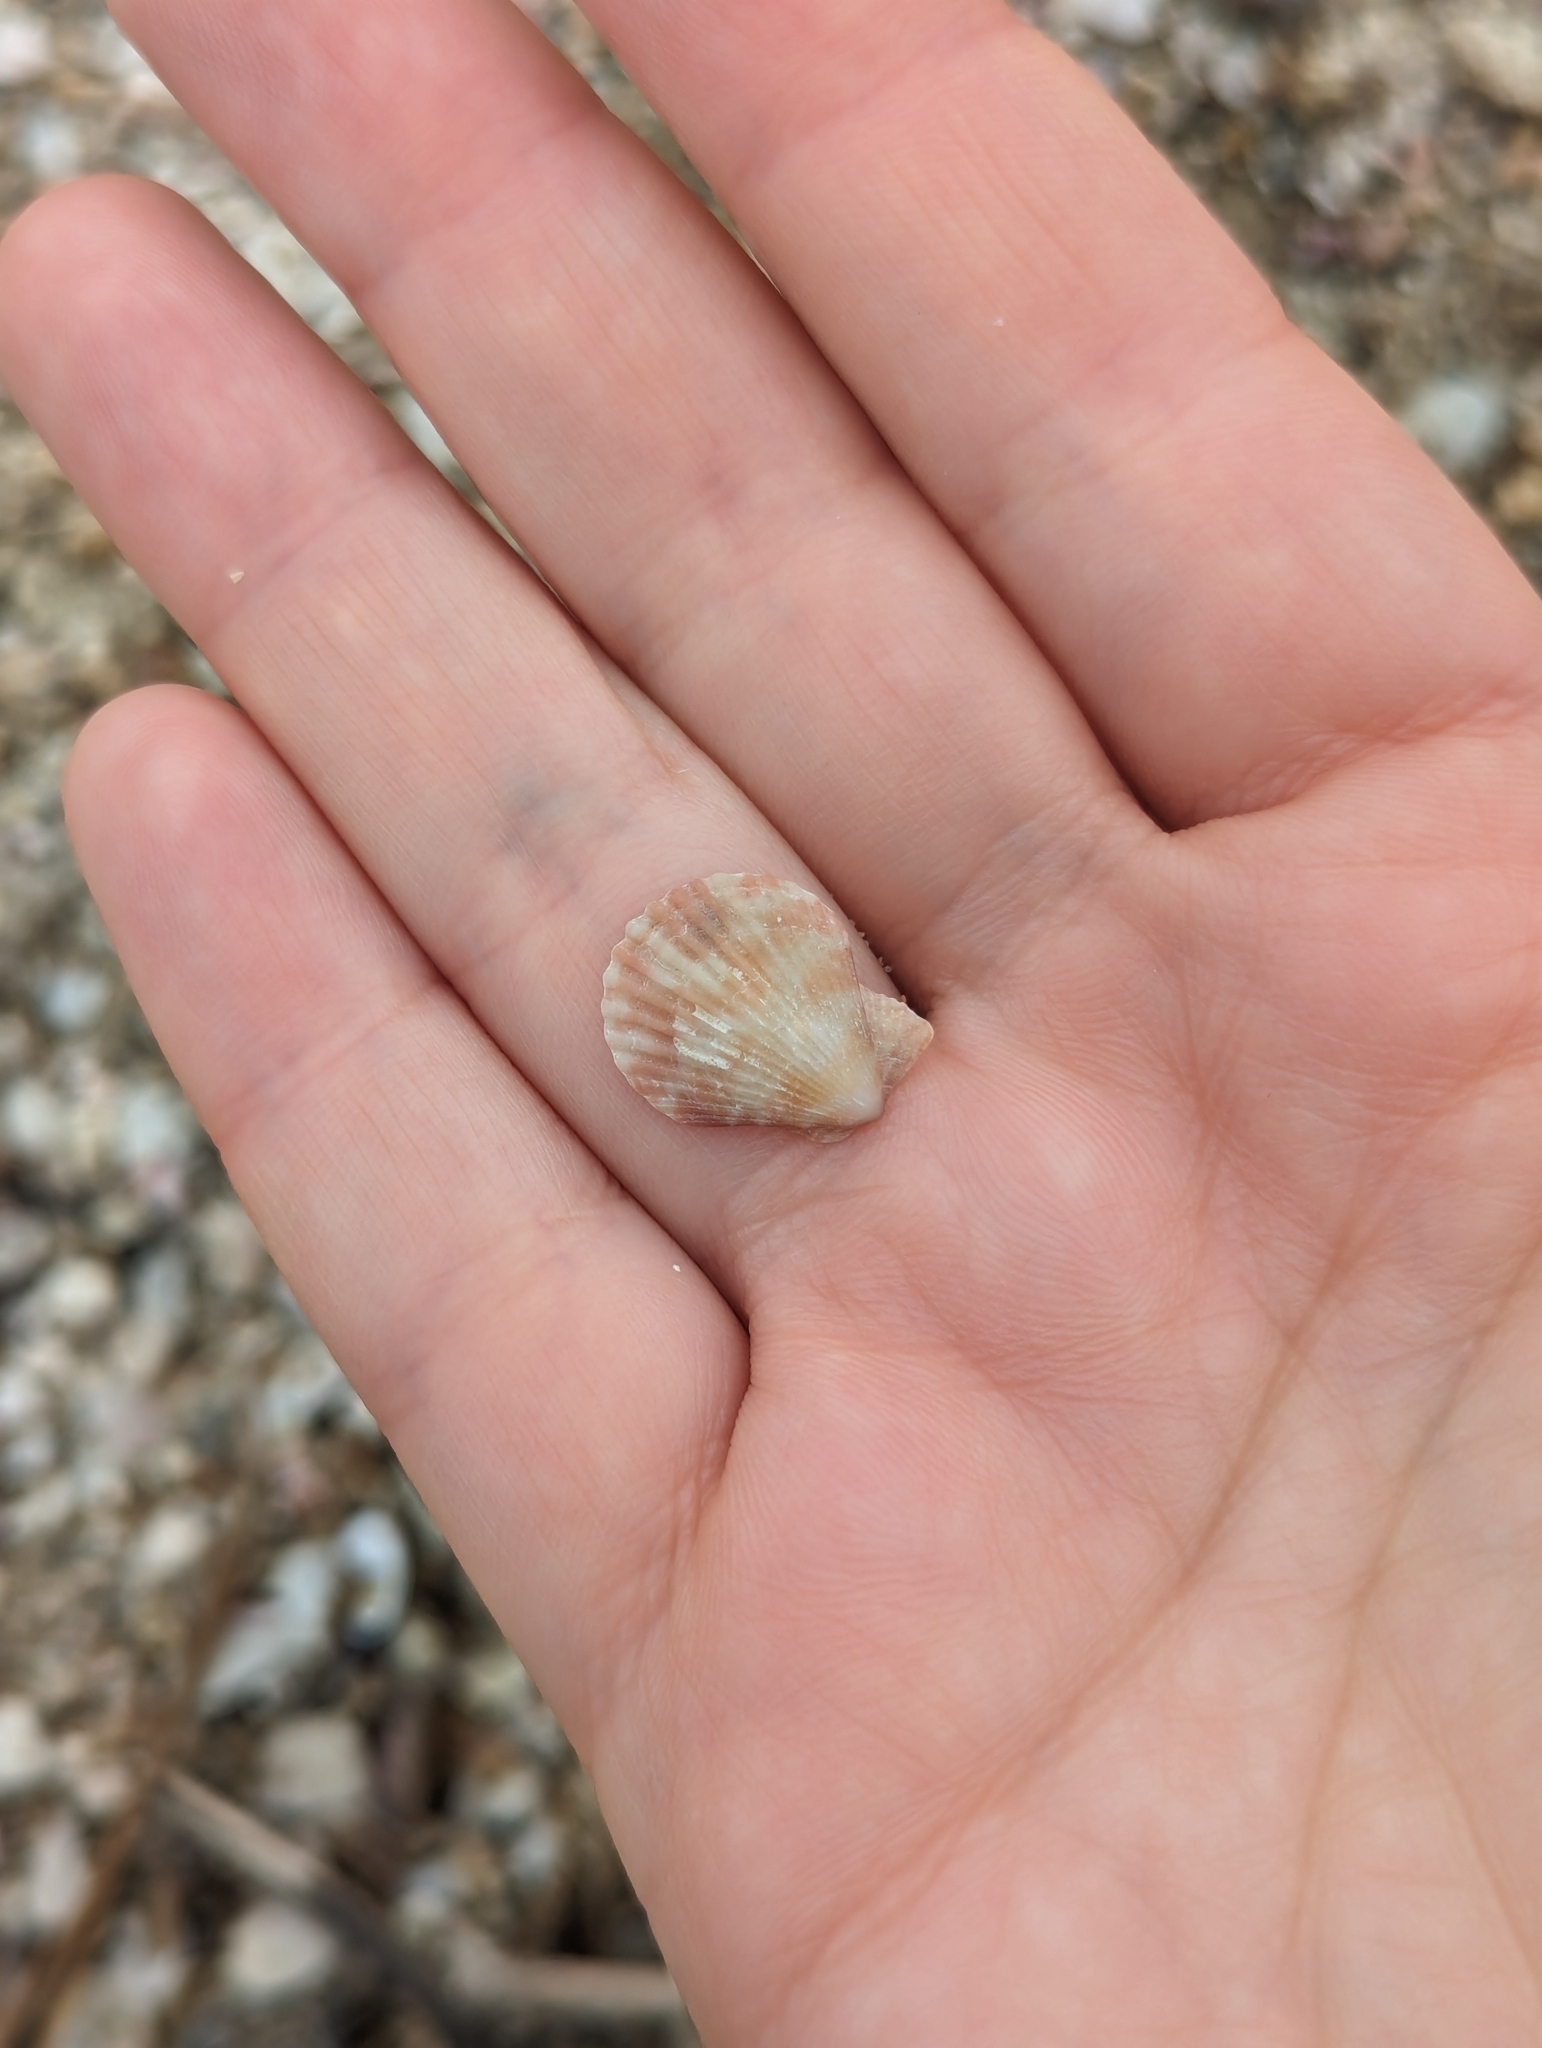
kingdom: Animalia
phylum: Mollusca
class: Bivalvia
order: Pectinida
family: Pectinidae
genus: Cryptopecten
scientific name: Cryptopecten vesiculosus
